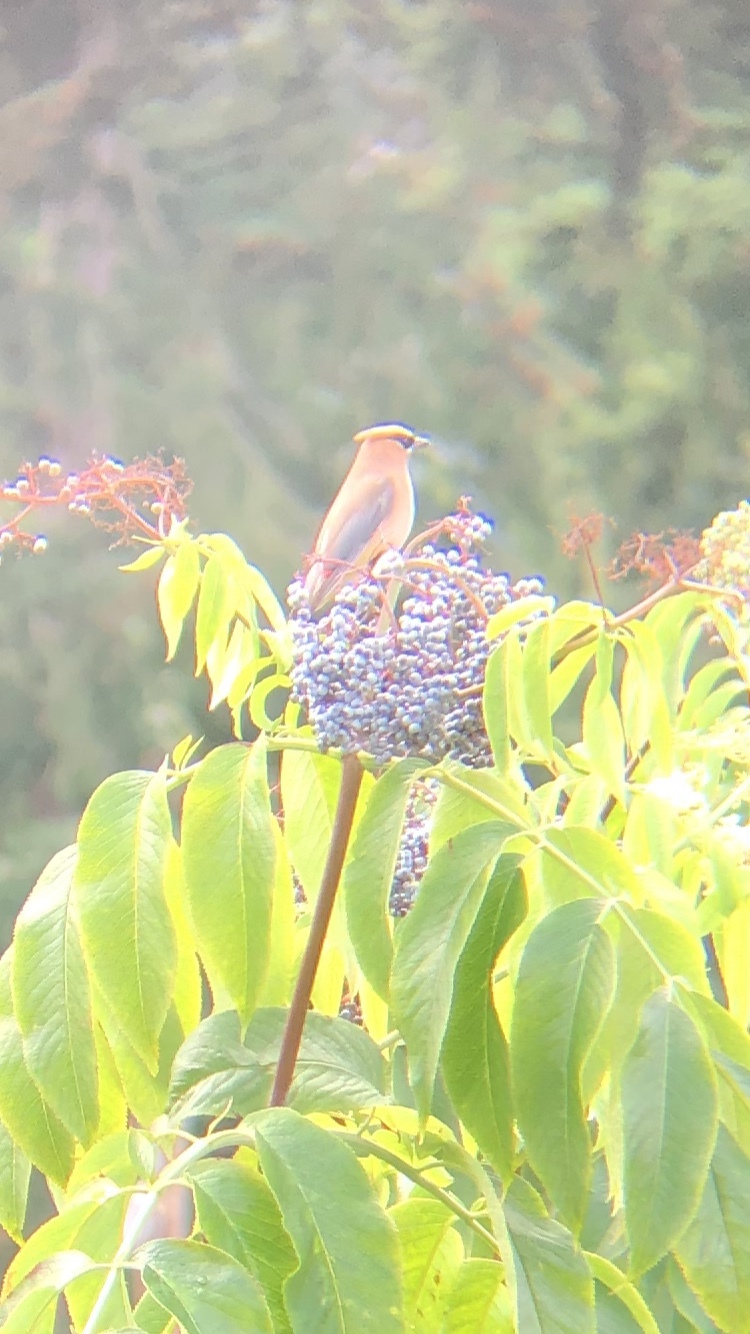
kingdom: Animalia
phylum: Chordata
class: Aves
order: Passeriformes
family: Bombycillidae
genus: Bombycilla
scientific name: Bombycilla cedrorum
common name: Cedar waxwing
